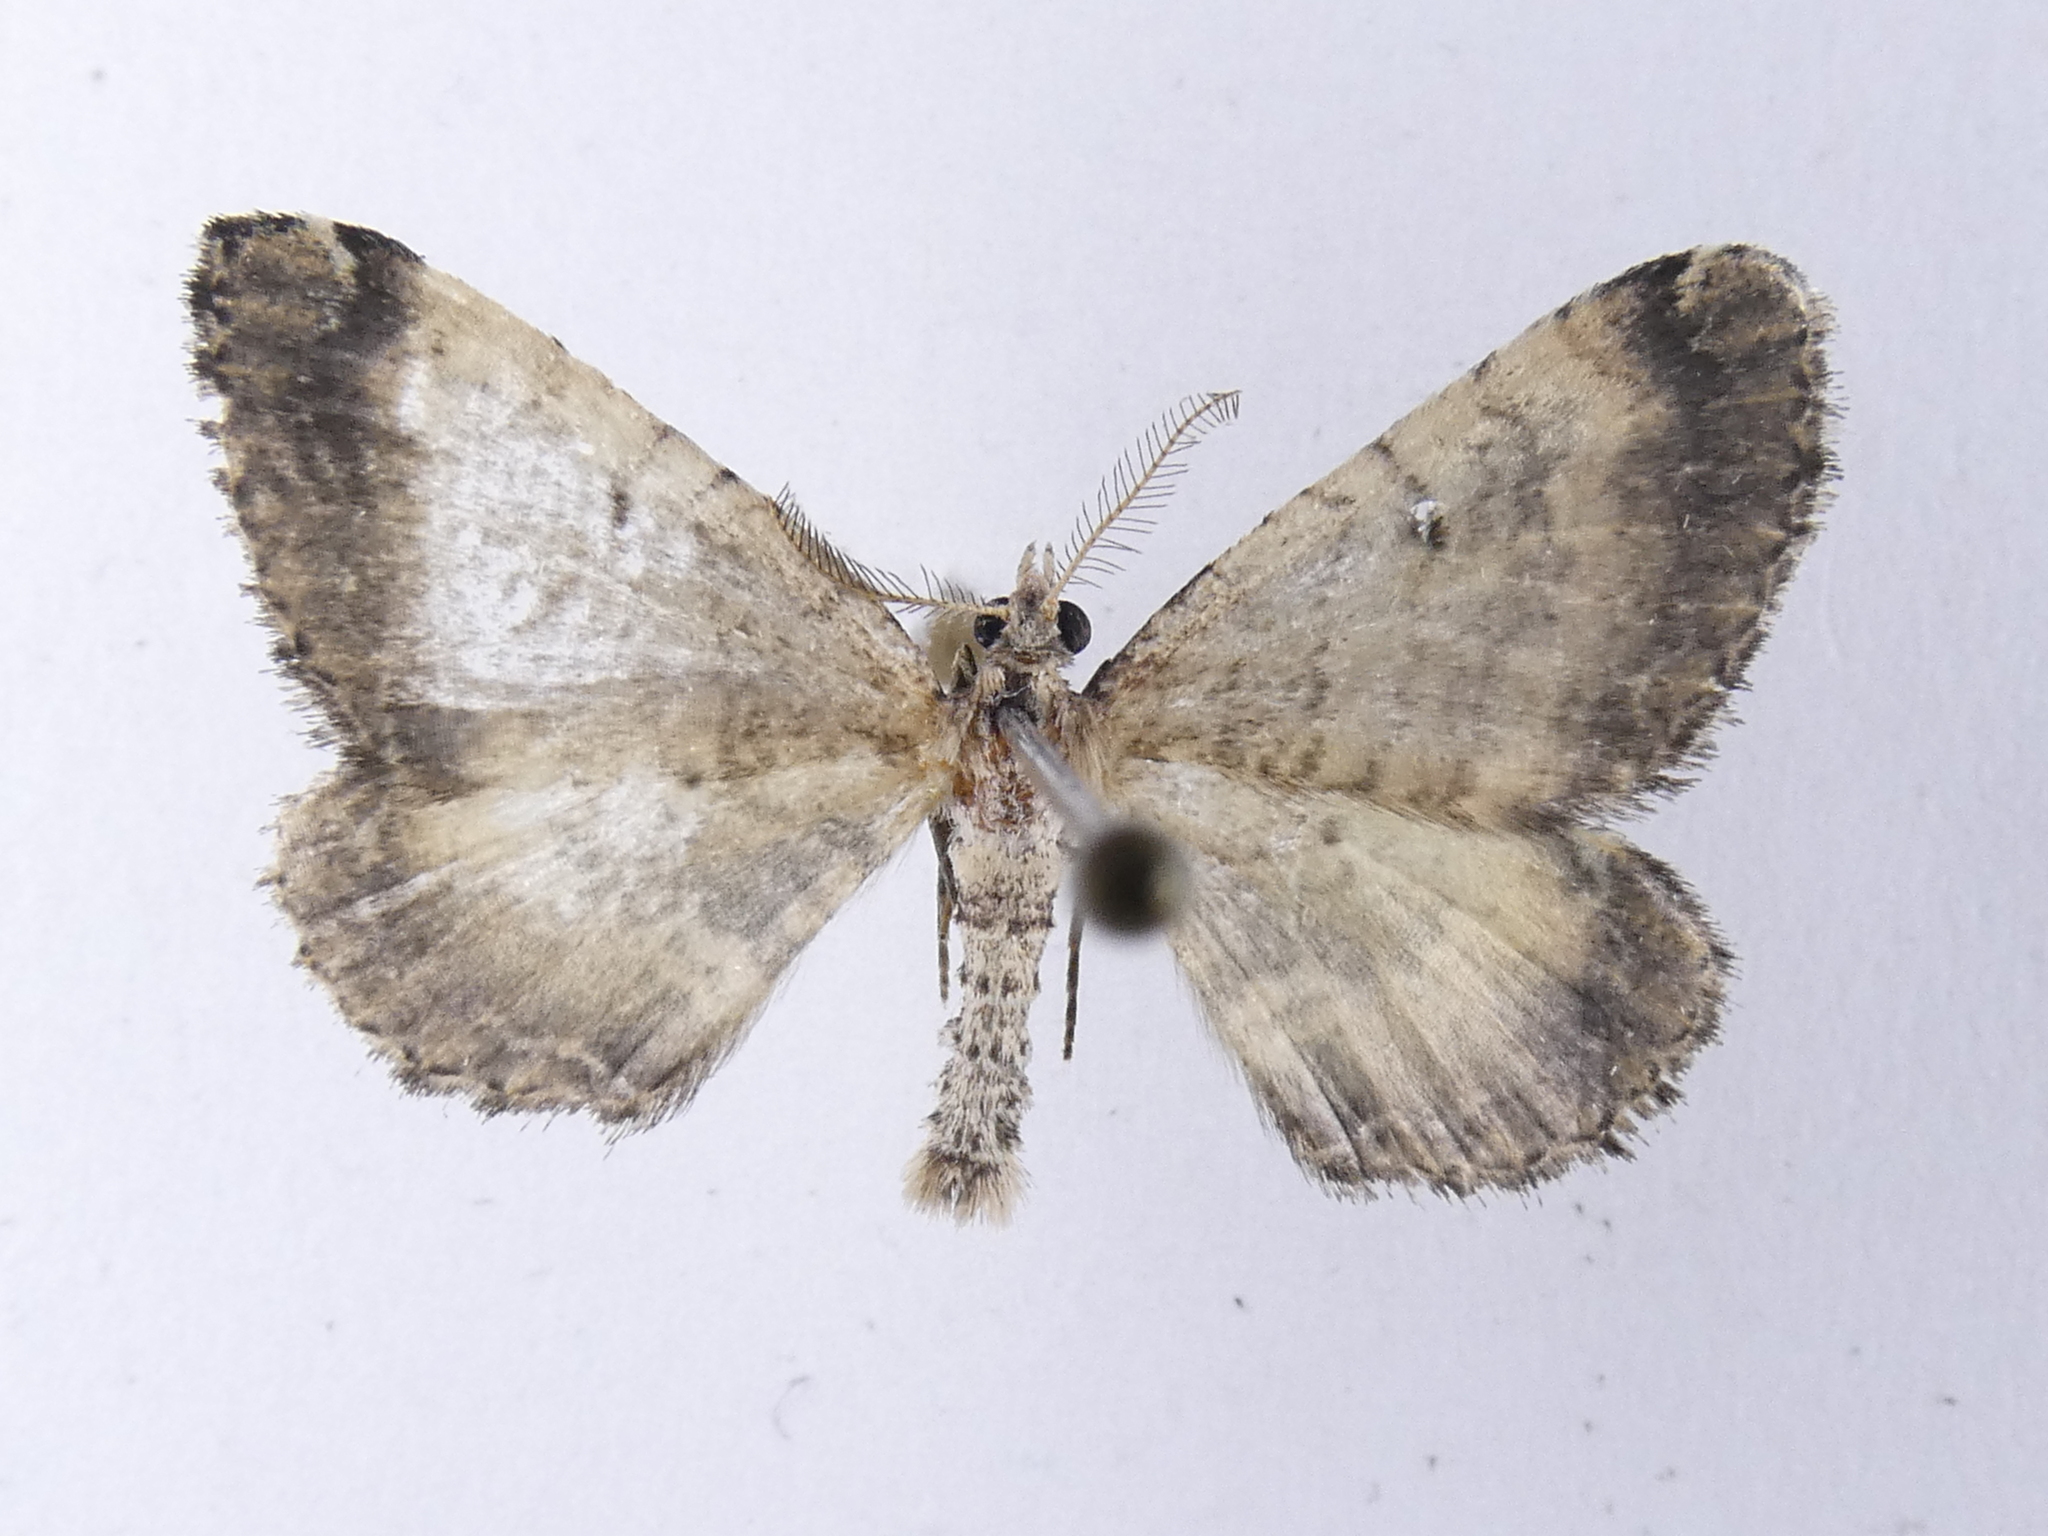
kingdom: Animalia
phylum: Arthropoda
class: Insecta
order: Lepidoptera
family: Geometridae
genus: Asaphodes
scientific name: Asaphodes aegrota
